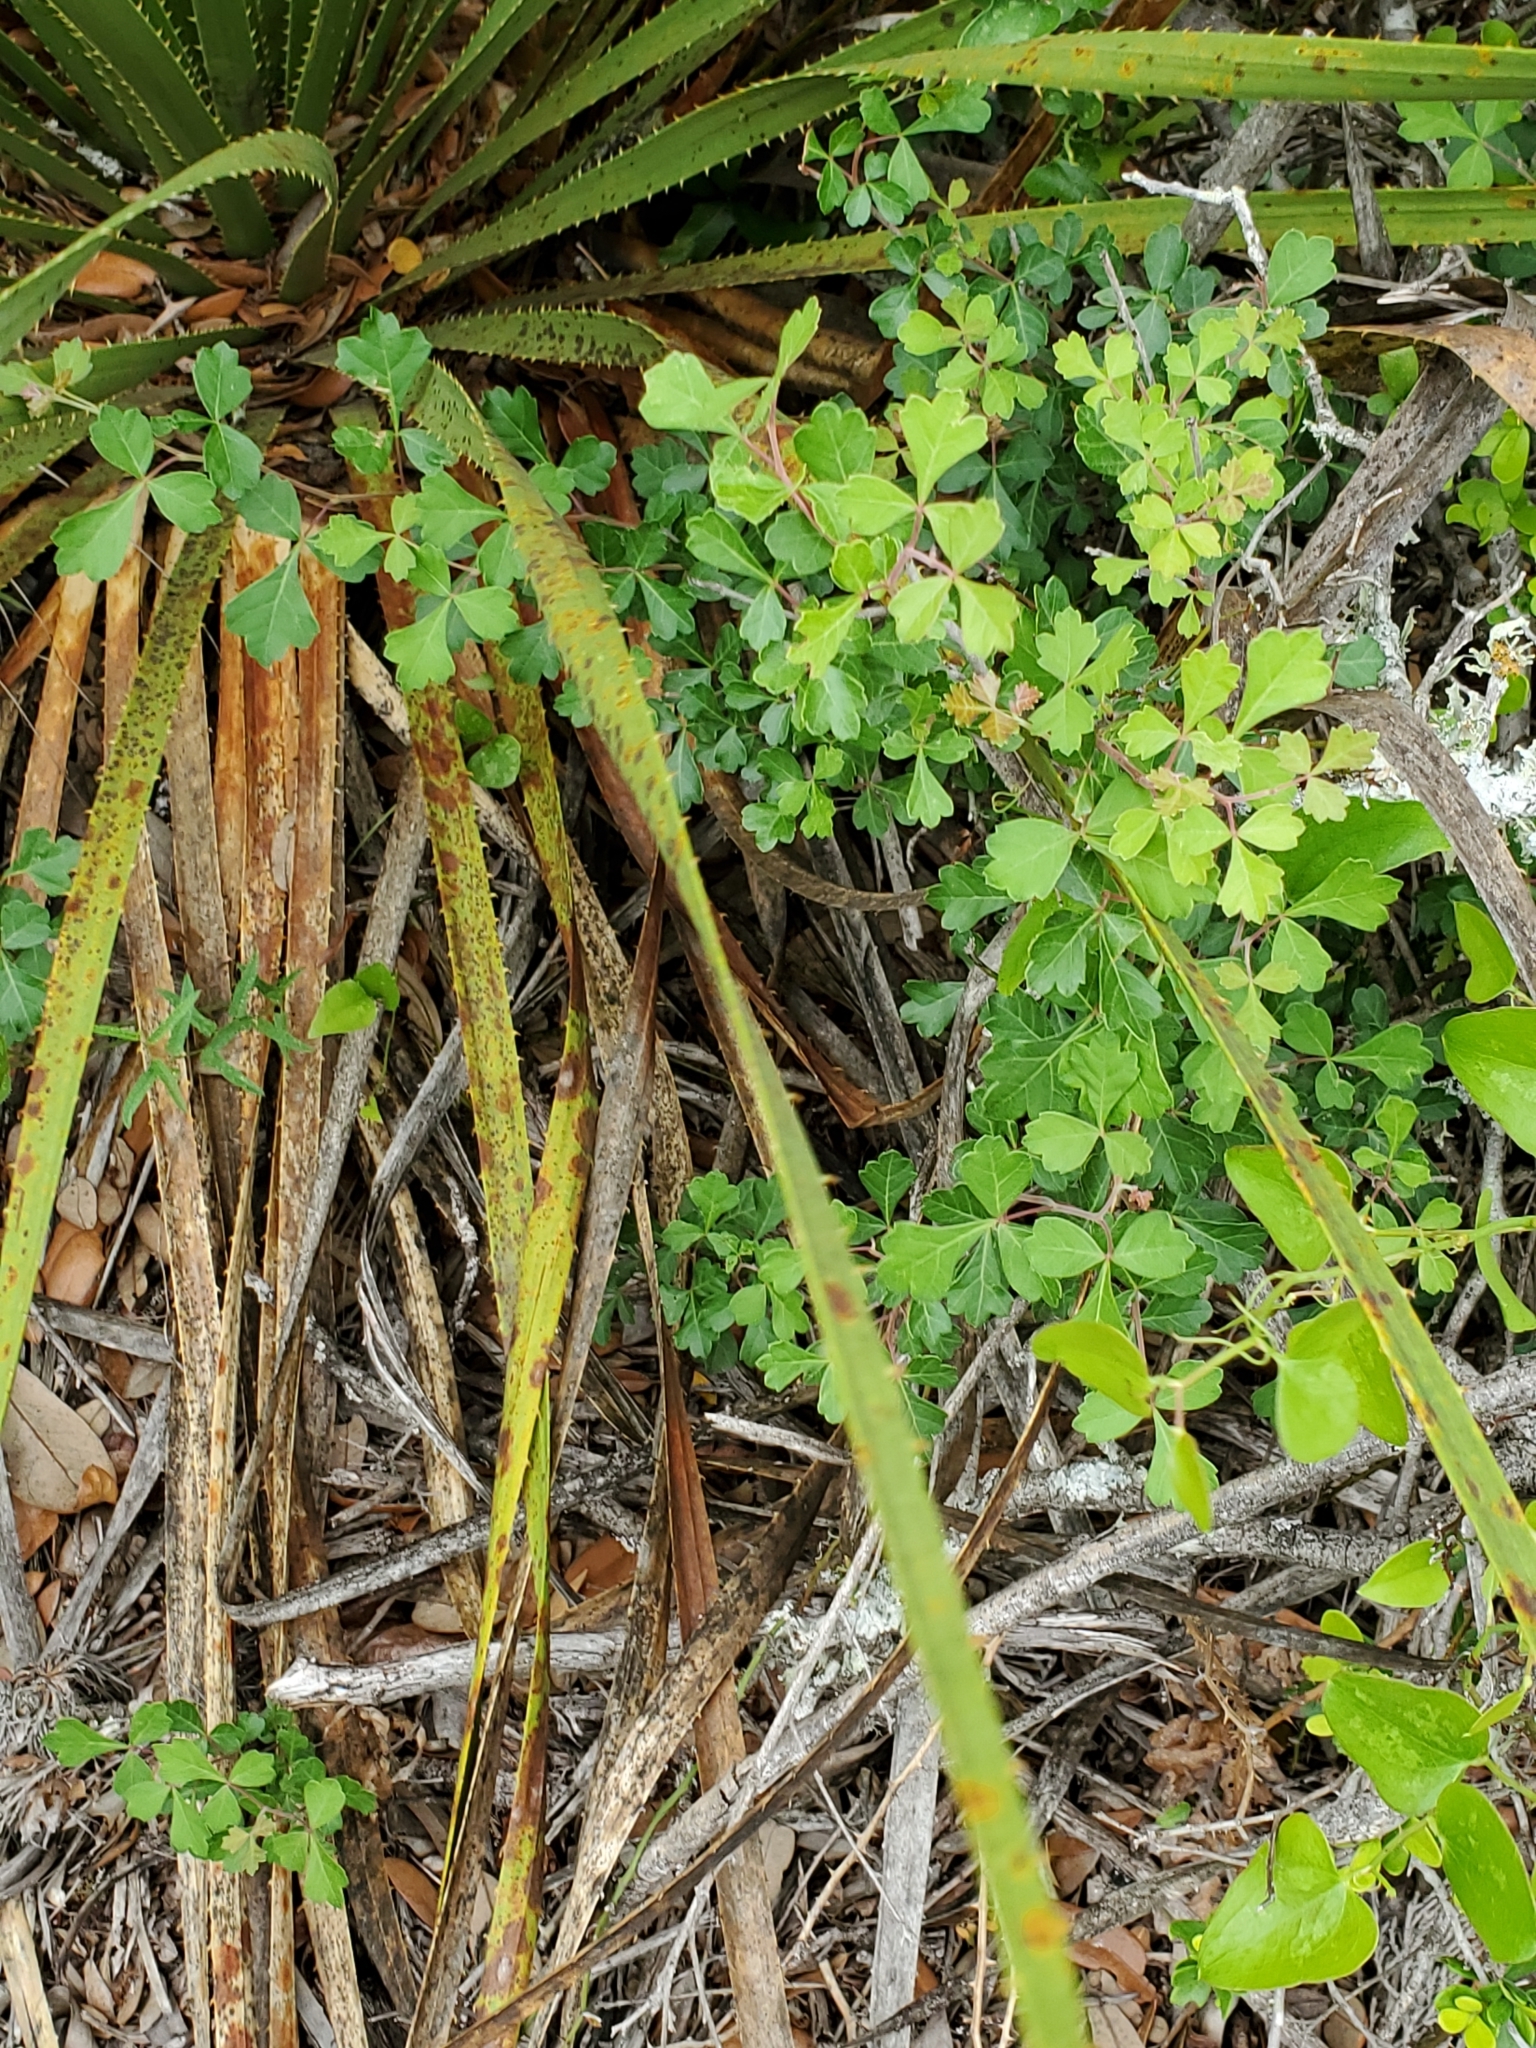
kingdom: Plantae
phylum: Tracheophyta
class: Magnoliopsida
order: Sapindales
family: Anacardiaceae
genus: Rhus
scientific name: Rhus aromatica
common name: Aromatic sumac
